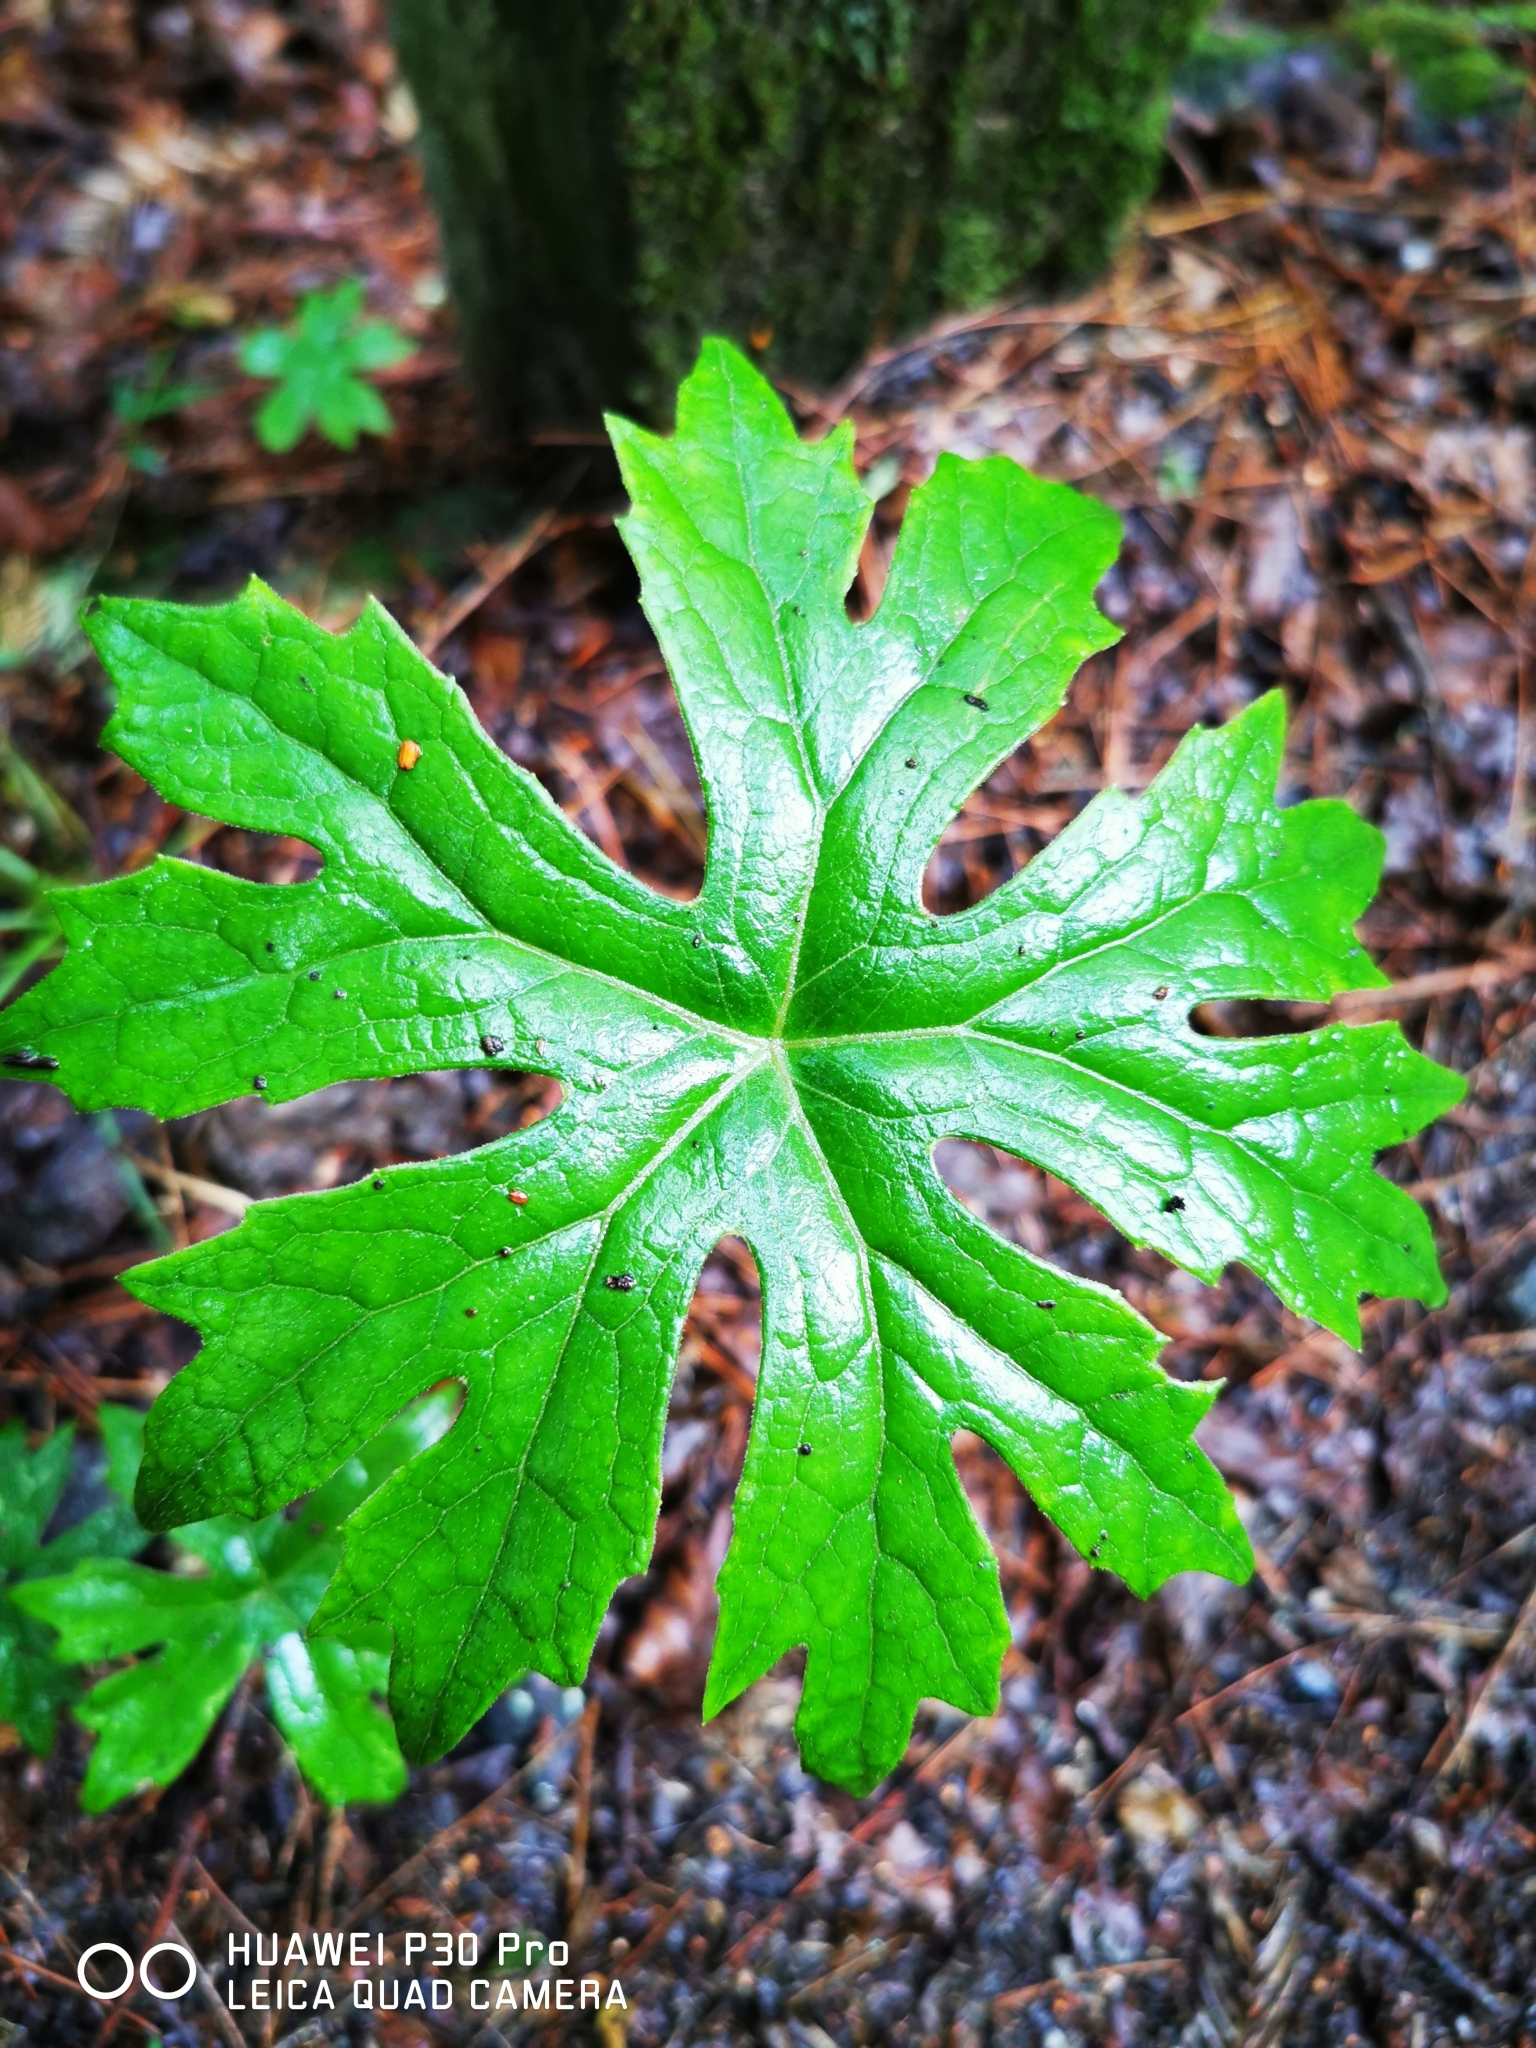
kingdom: Plantae
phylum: Tracheophyta
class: Magnoliopsida
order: Asterales
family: Asteraceae
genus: Syneilesis
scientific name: Syneilesis subglabrata
